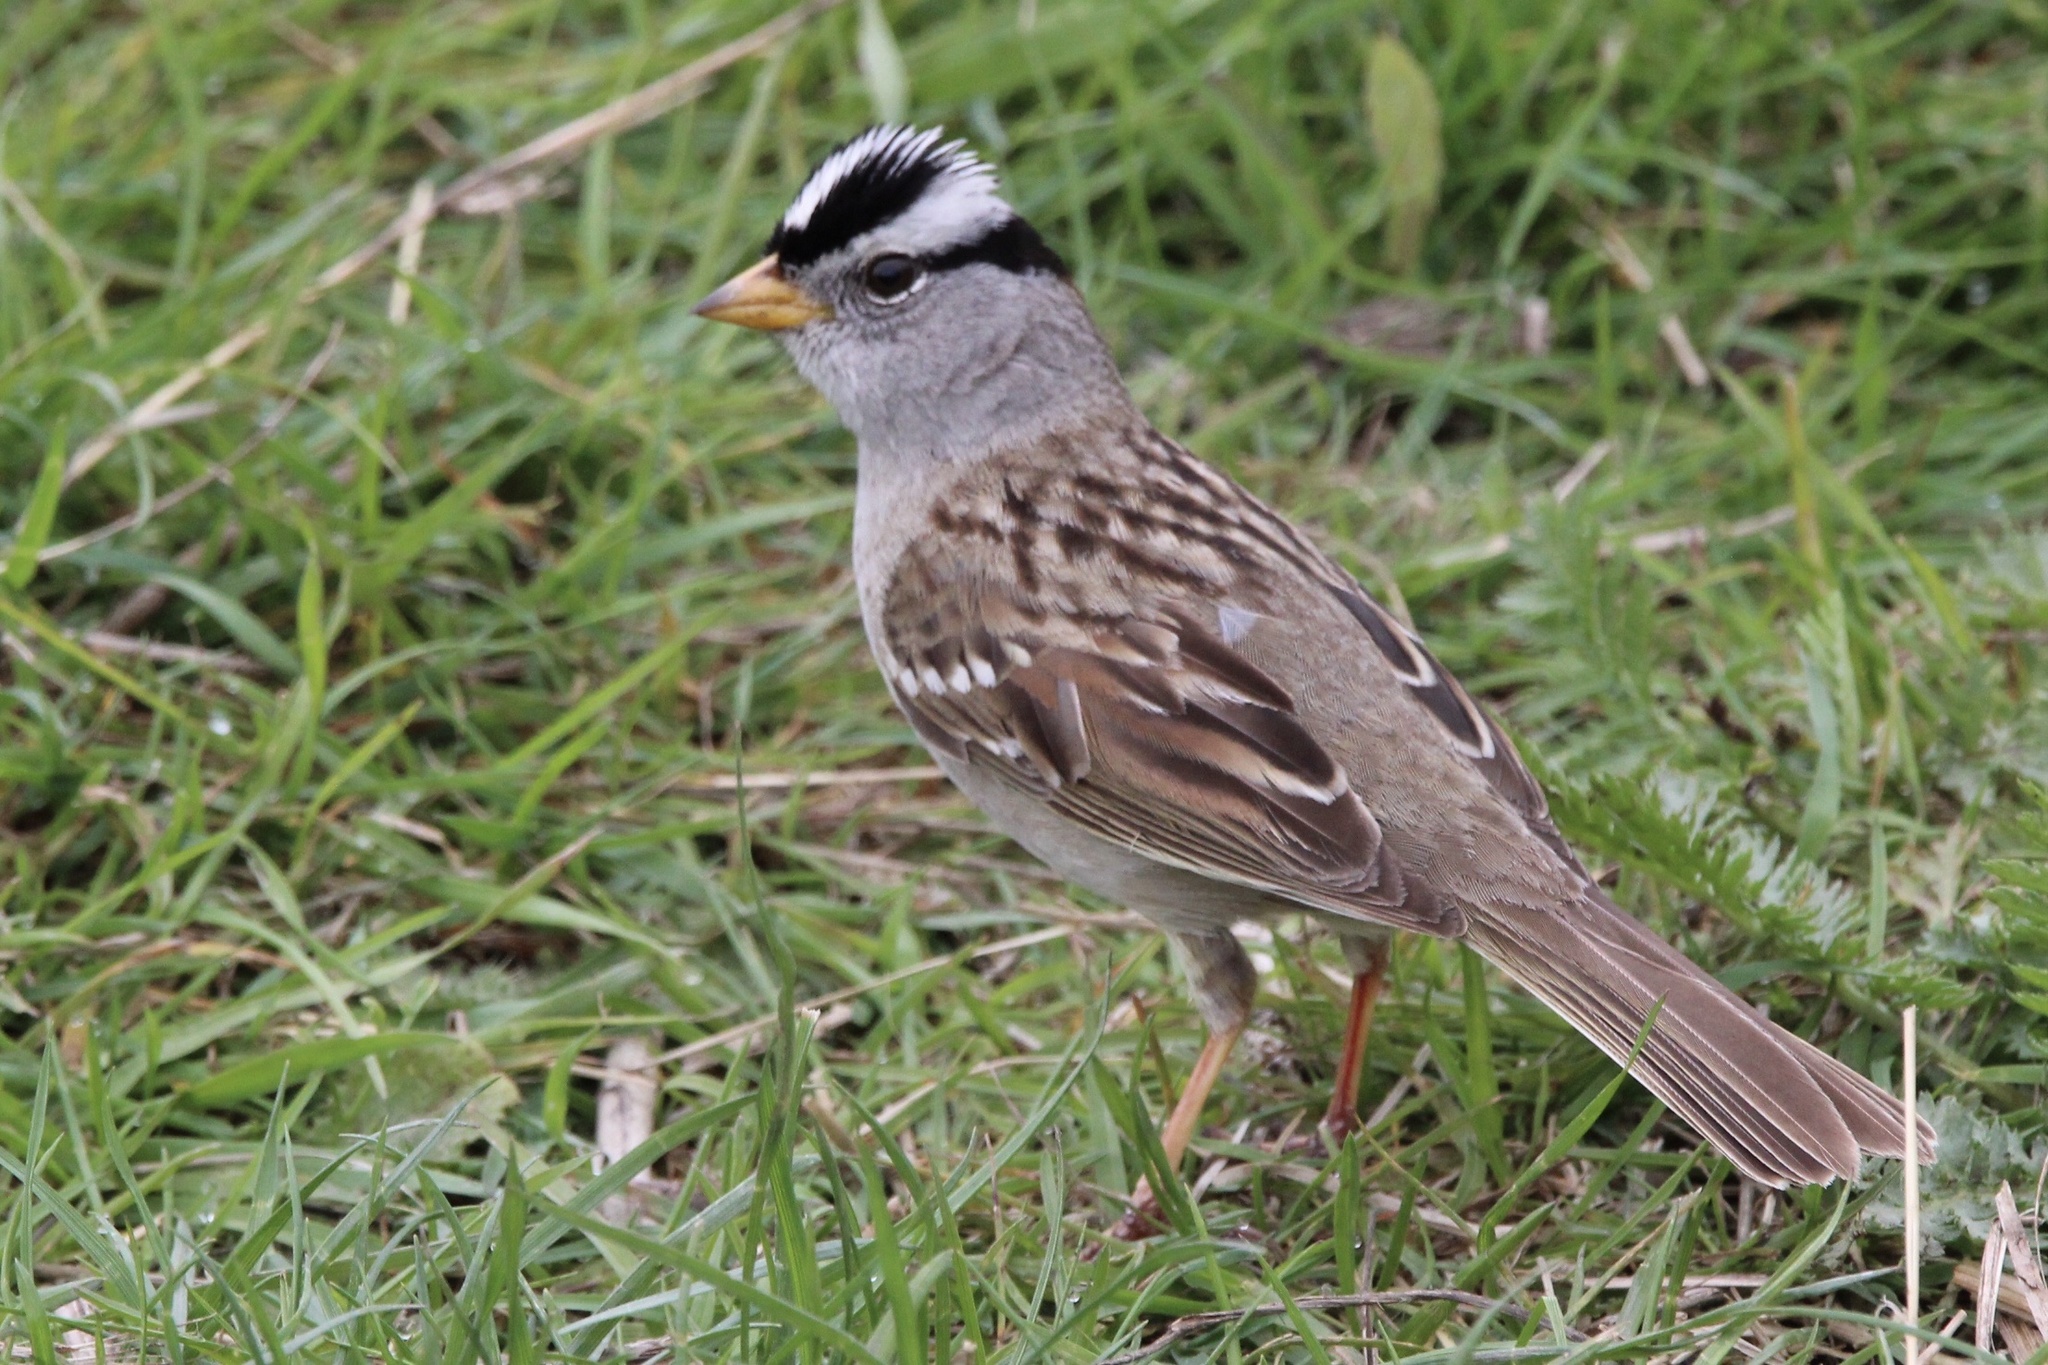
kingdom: Animalia
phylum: Chordata
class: Aves
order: Passeriformes
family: Passerellidae
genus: Zonotrichia
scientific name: Zonotrichia leucophrys
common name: White-crowned sparrow
